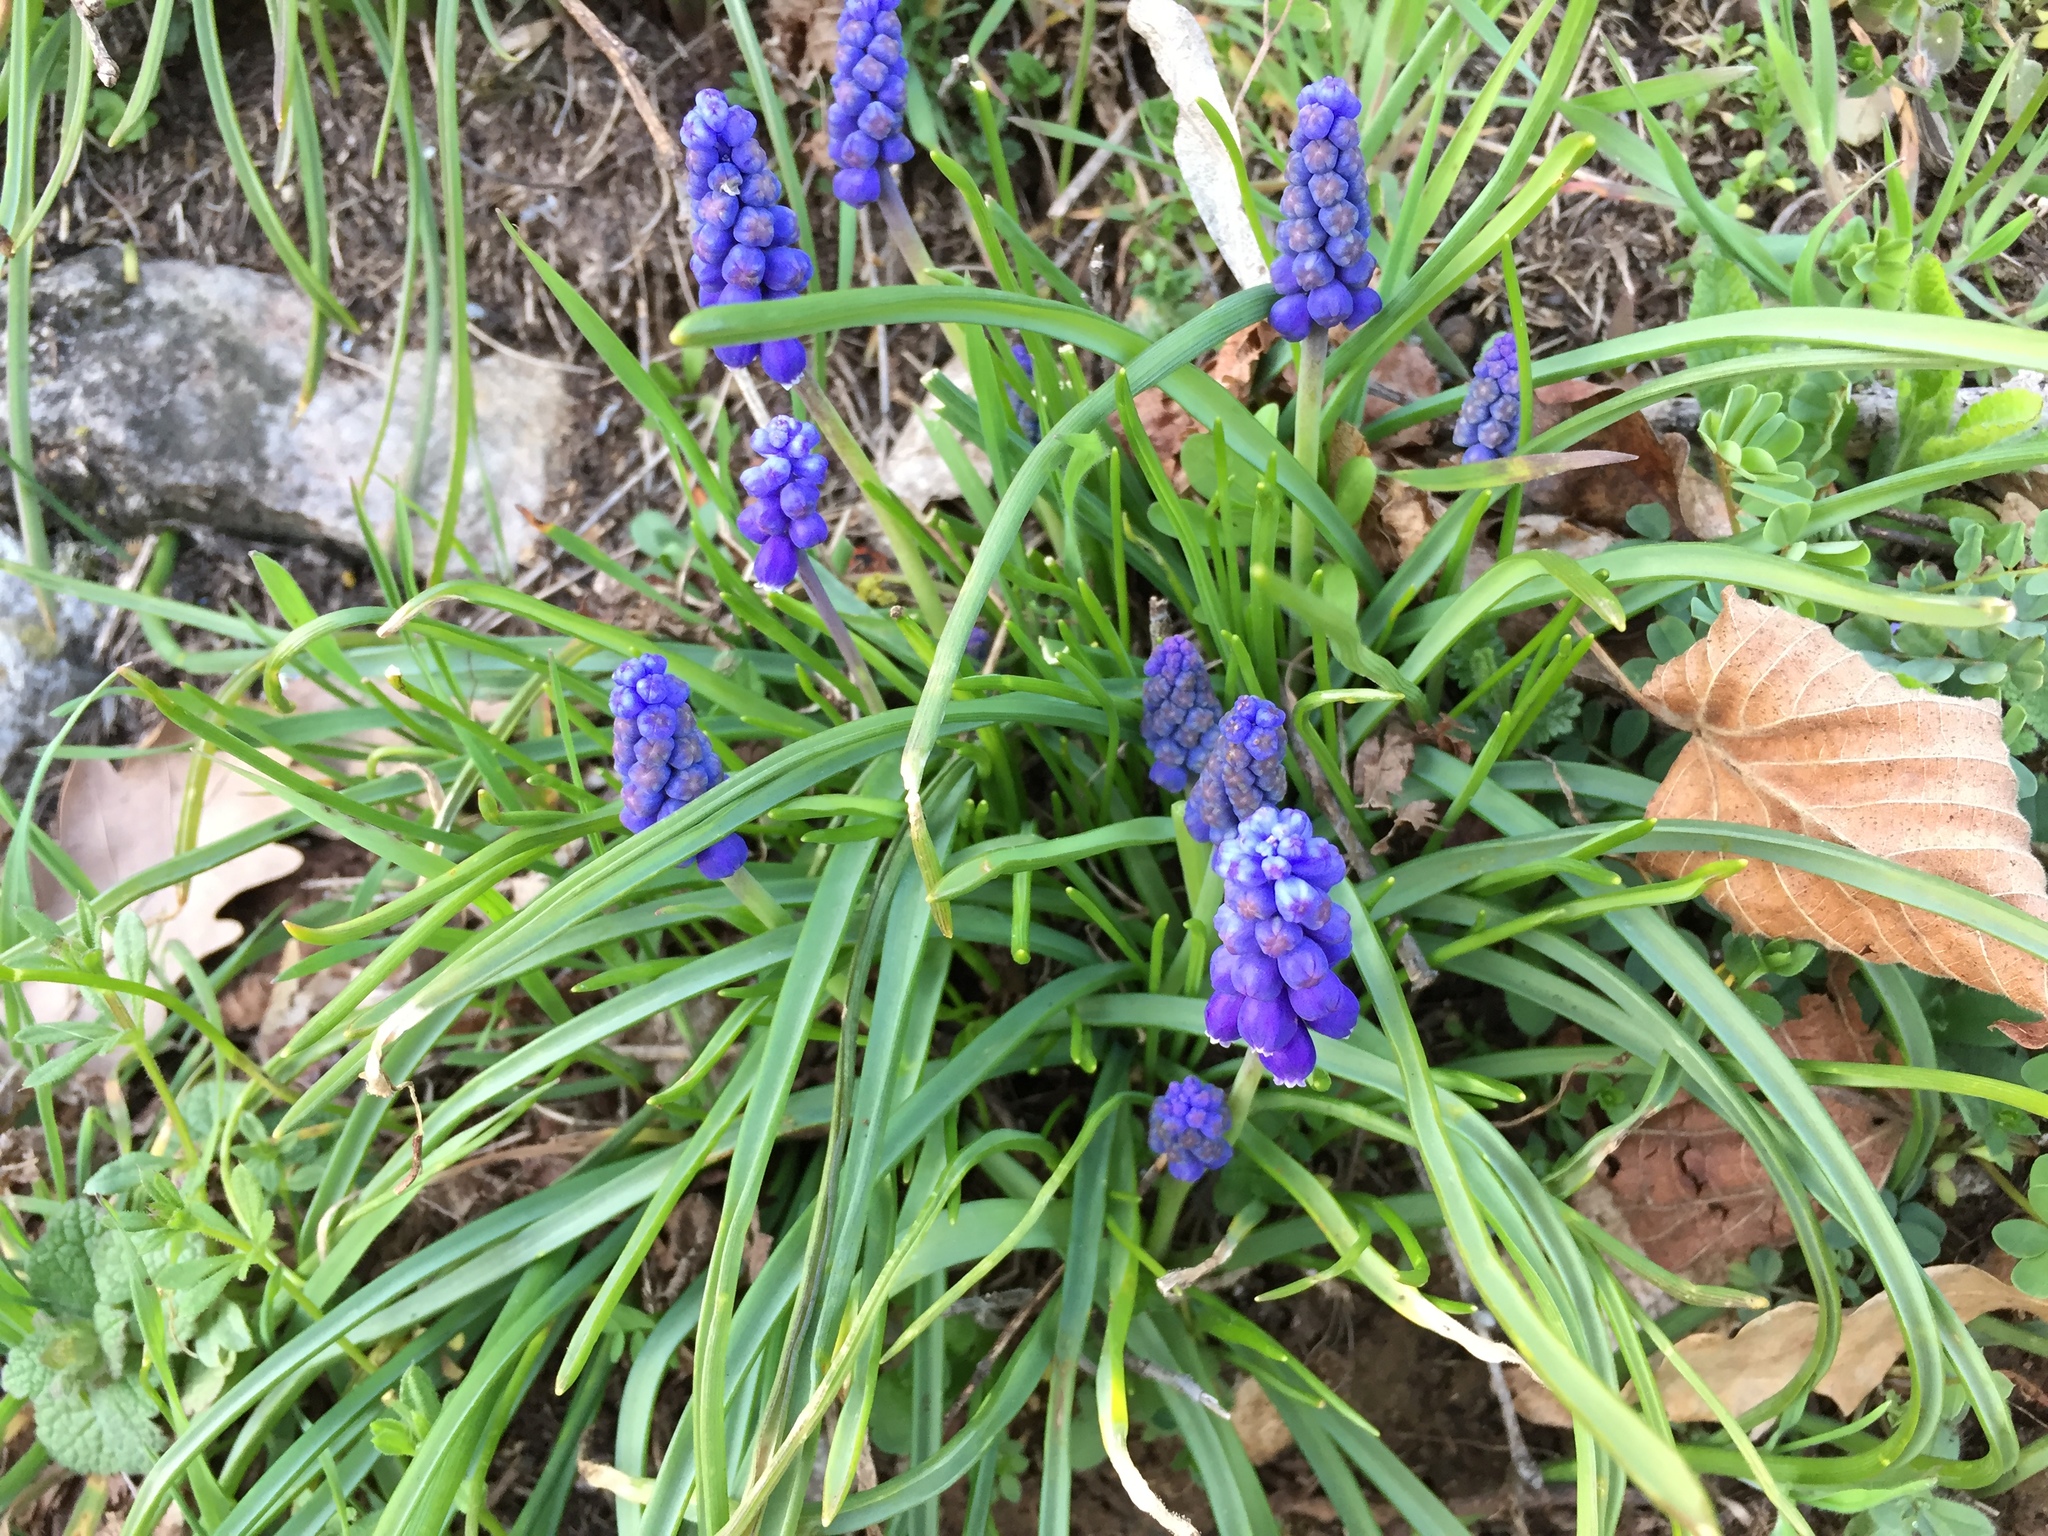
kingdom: Plantae
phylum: Tracheophyta
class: Liliopsida
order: Asparagales
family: Asparagaceae
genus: Muscari
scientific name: Muscari botryoides
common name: Compact grape-hyacinth
